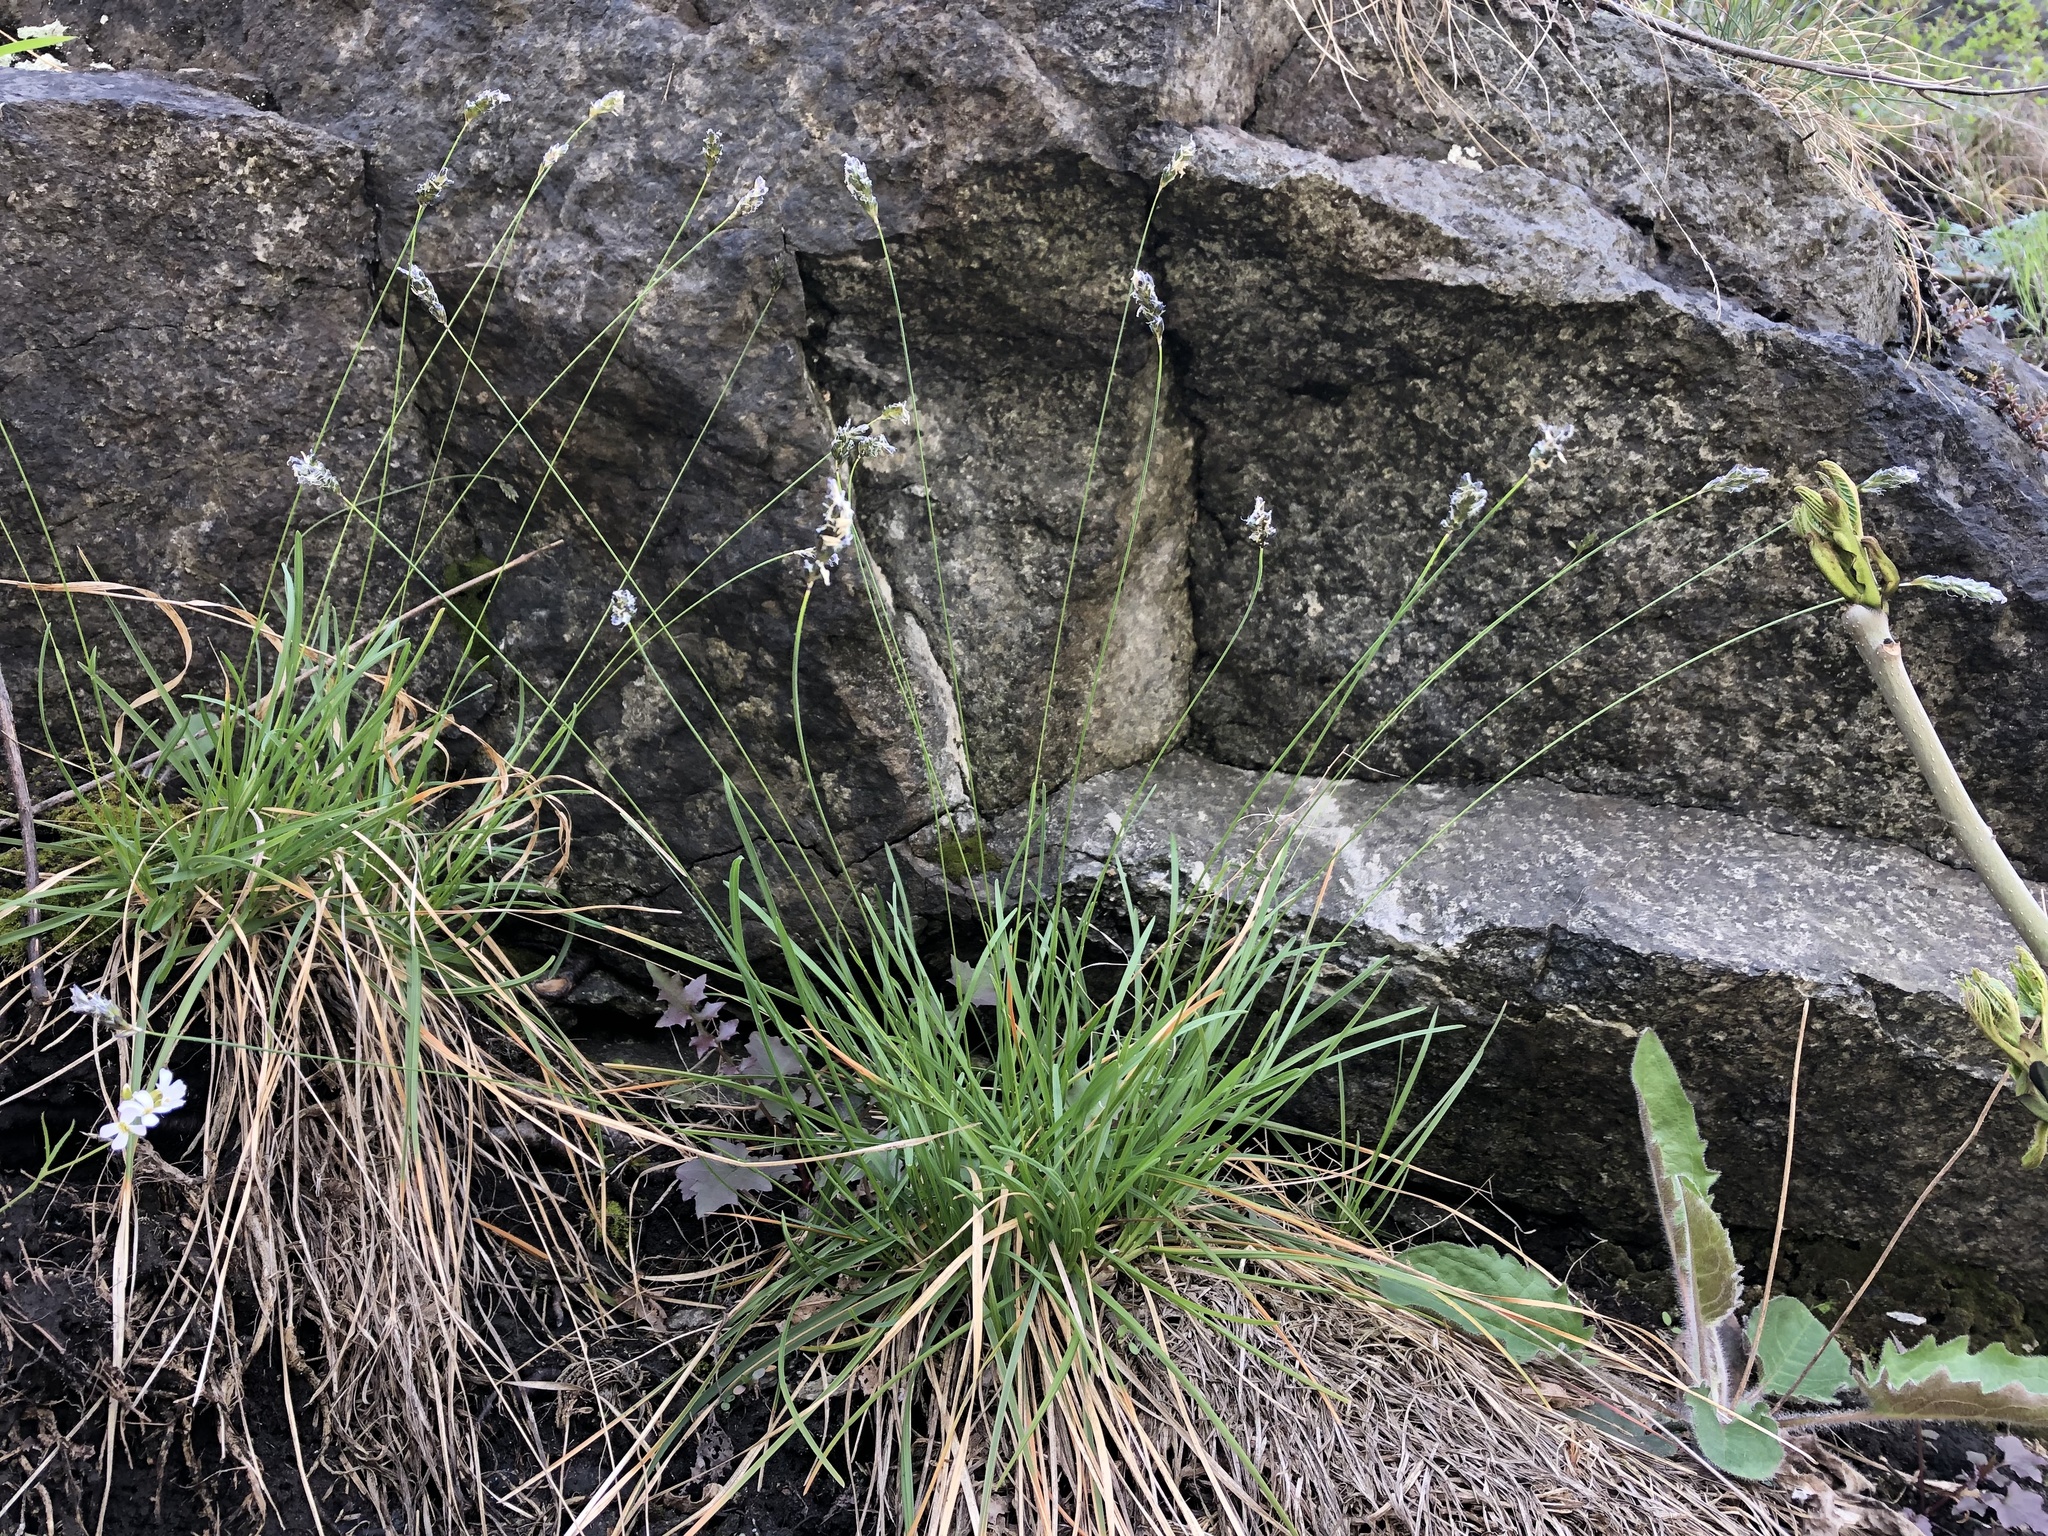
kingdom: Plantae
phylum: Tracheophyta
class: Liliopsida
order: Poales
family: Poaceae
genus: Sesleria
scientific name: Sesleria caerulea
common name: Blue moor-grass
